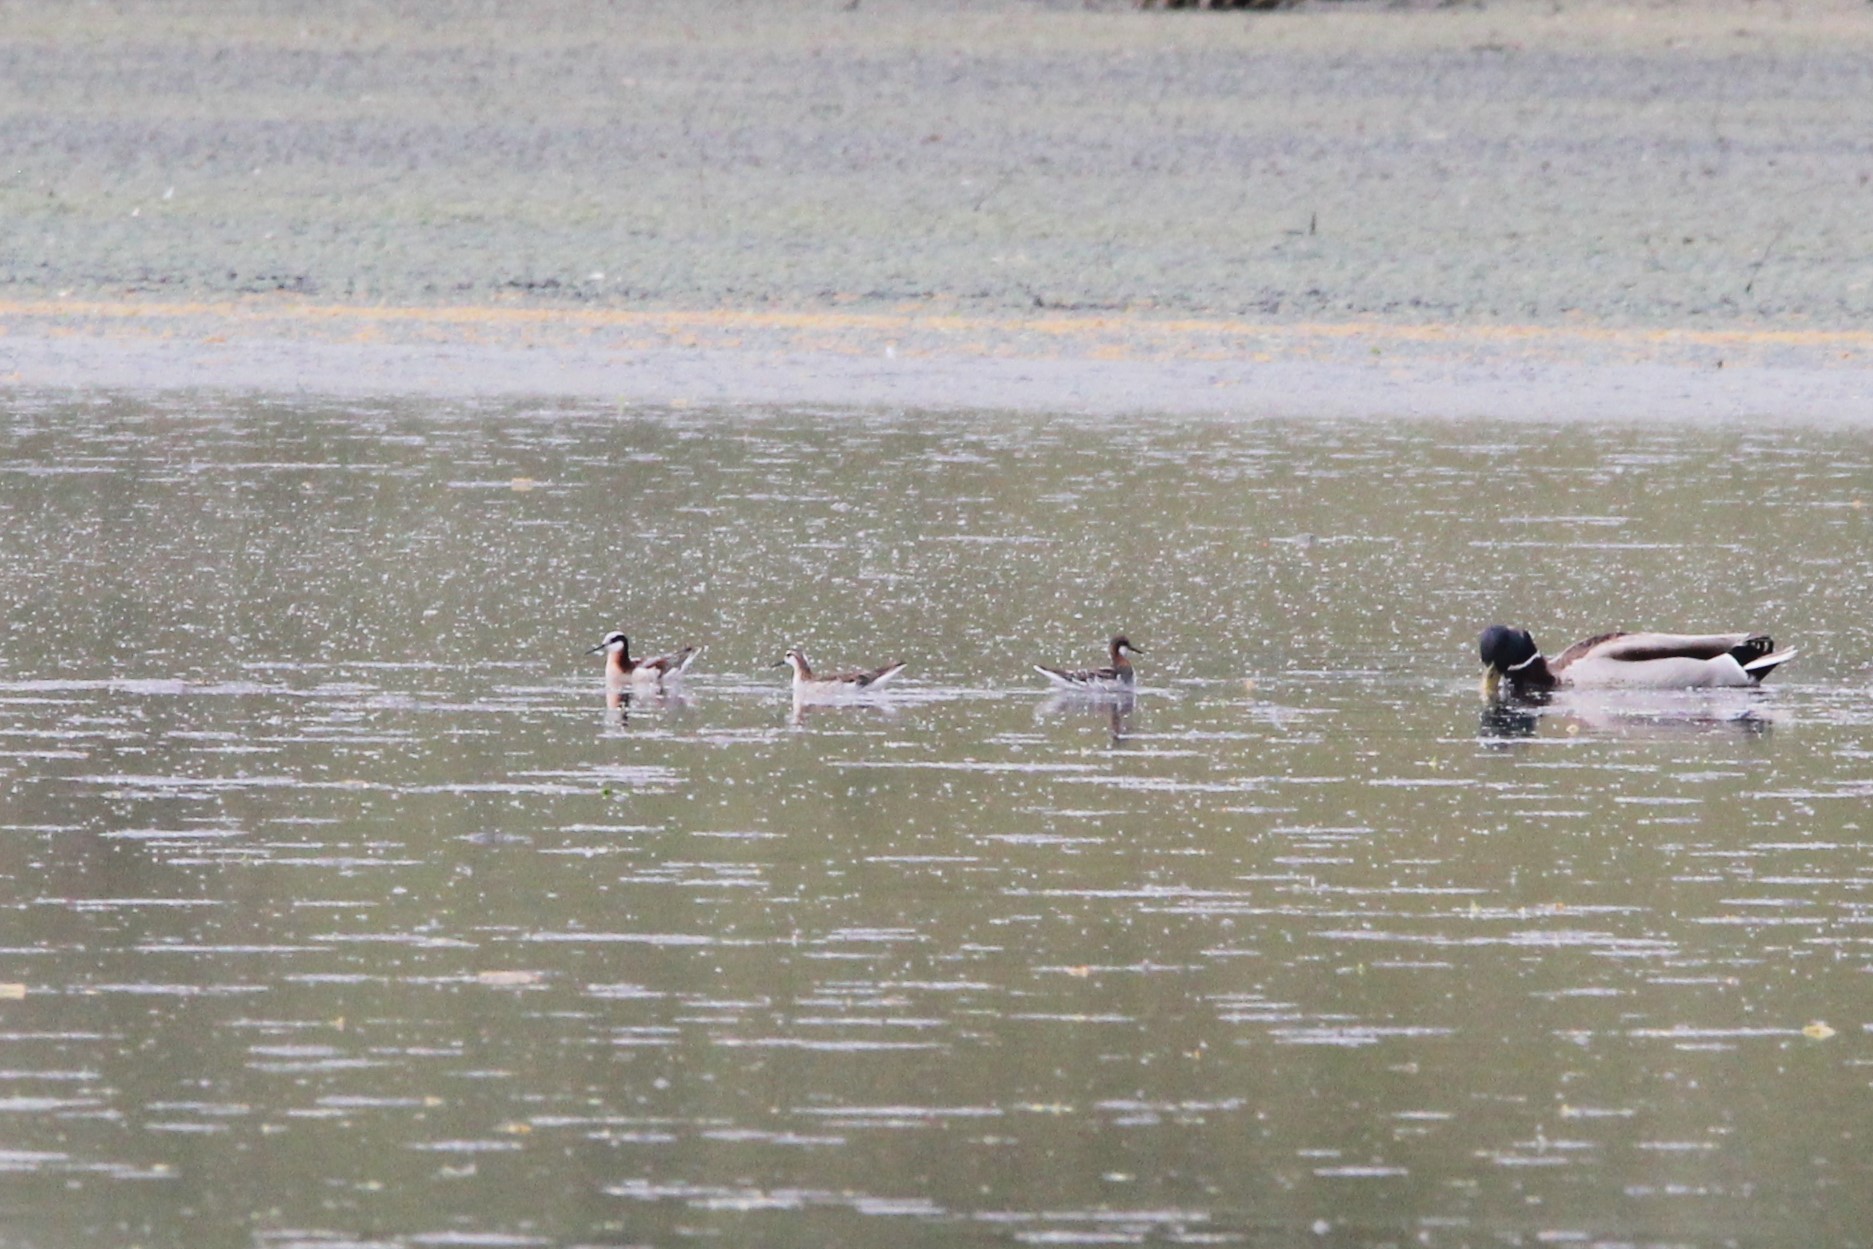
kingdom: Animalia
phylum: Chordata
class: Aves
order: Charadriiformes
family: Scolopacidae
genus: Phalaropus
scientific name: Phalaropus lobatus
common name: Red-necked phalarope
